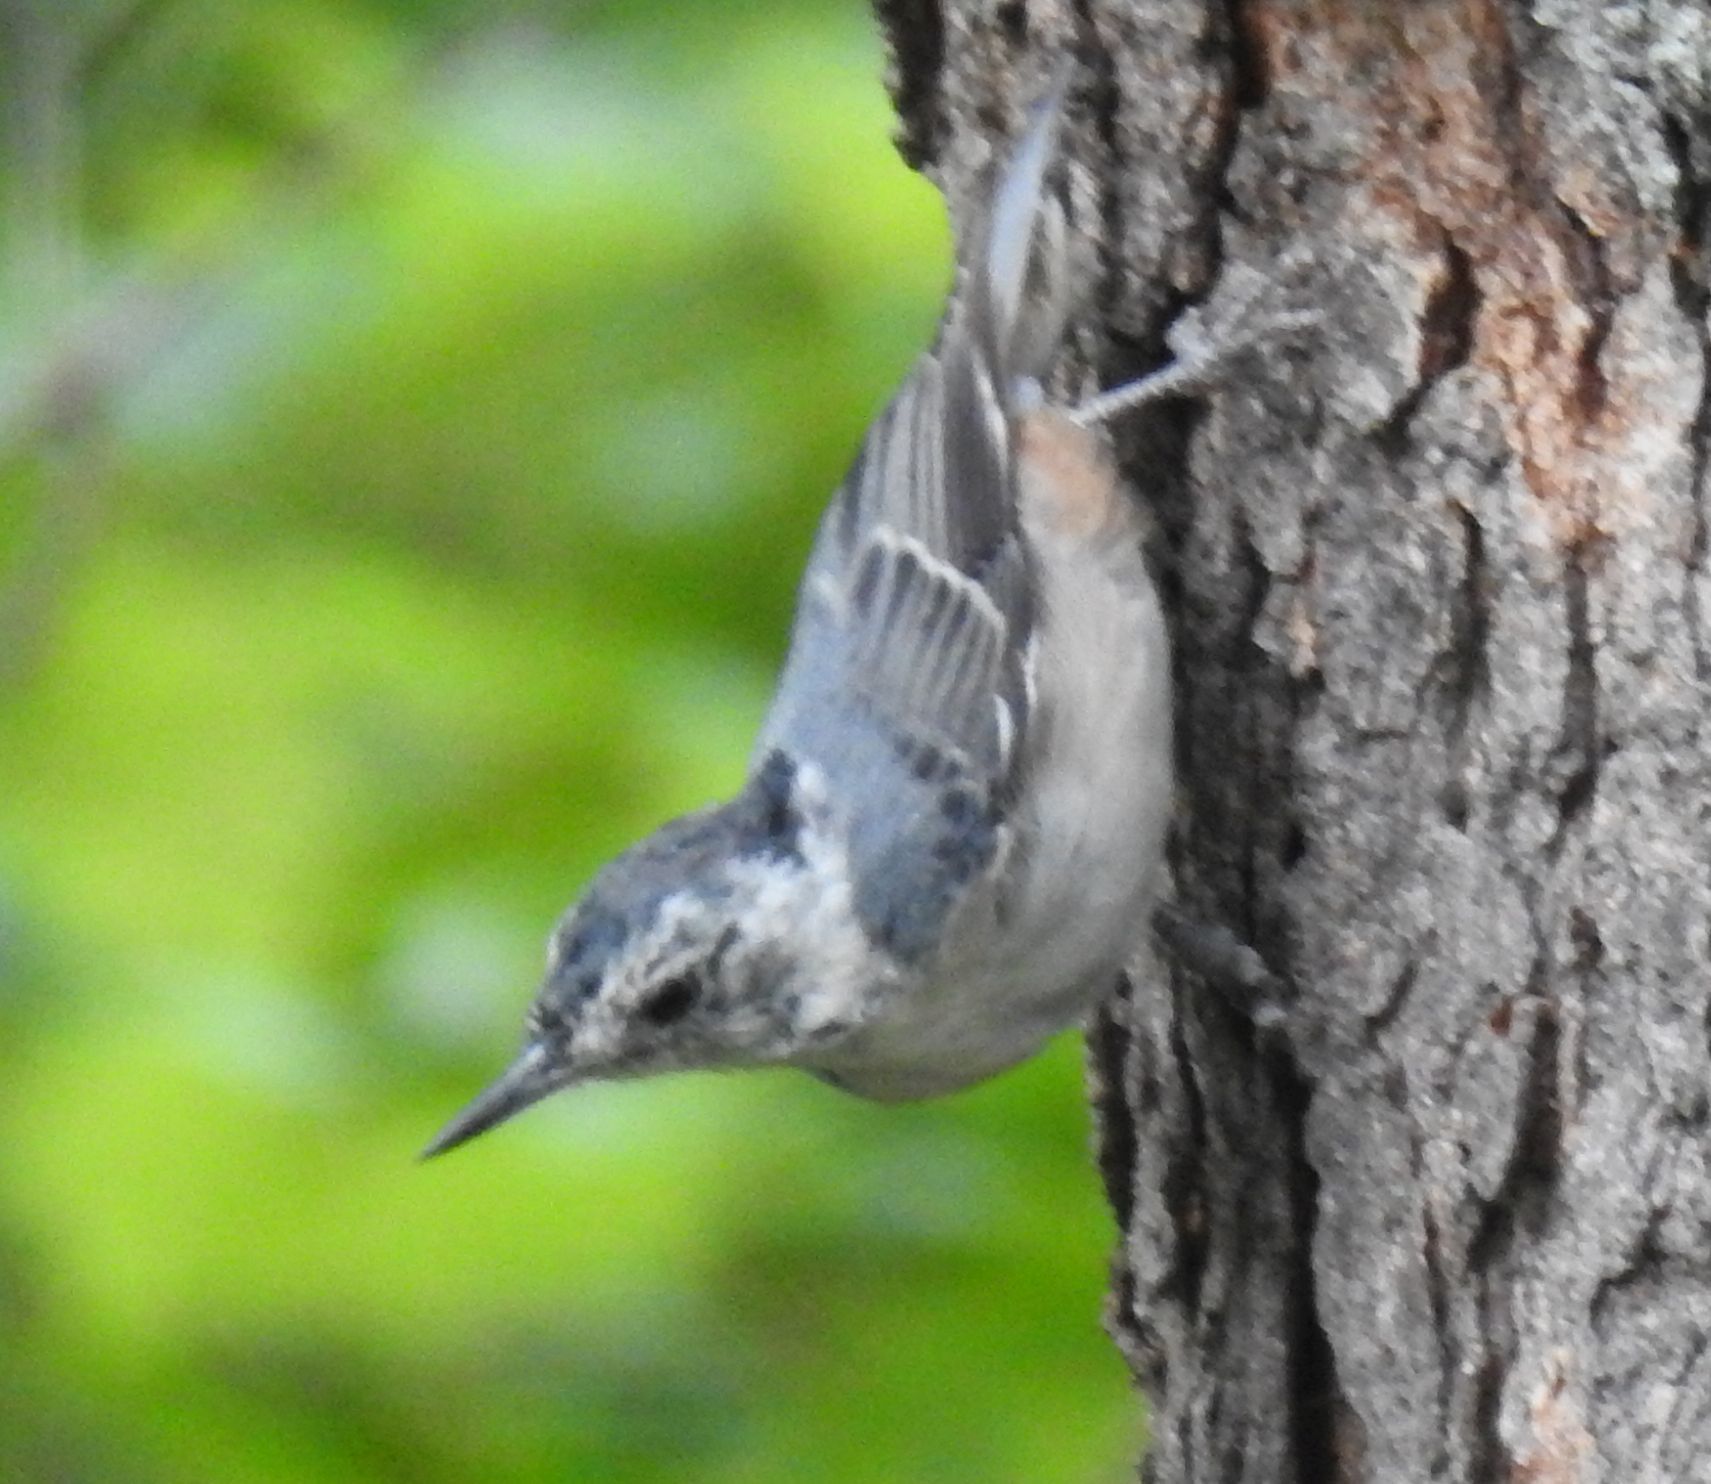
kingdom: Animalia
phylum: Chordata
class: Aves
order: Passeriformes
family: Sittidae
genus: Sitta
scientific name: Sitta carolinensis
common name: White-breasted nuthatch
